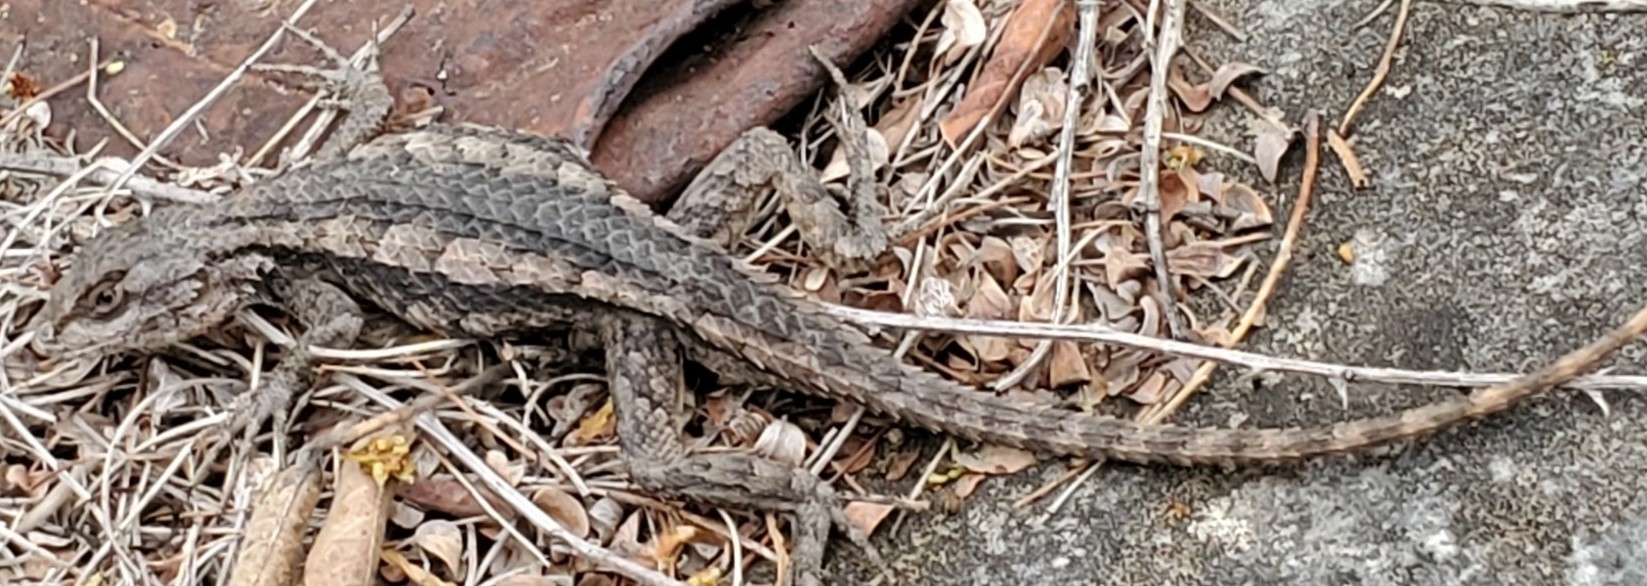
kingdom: Animalia
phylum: Chordata
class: Squamata
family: Phrynosomatidae
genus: Sceloporus
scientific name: Sceloporus olivaceus
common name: Texas spiny lizard
